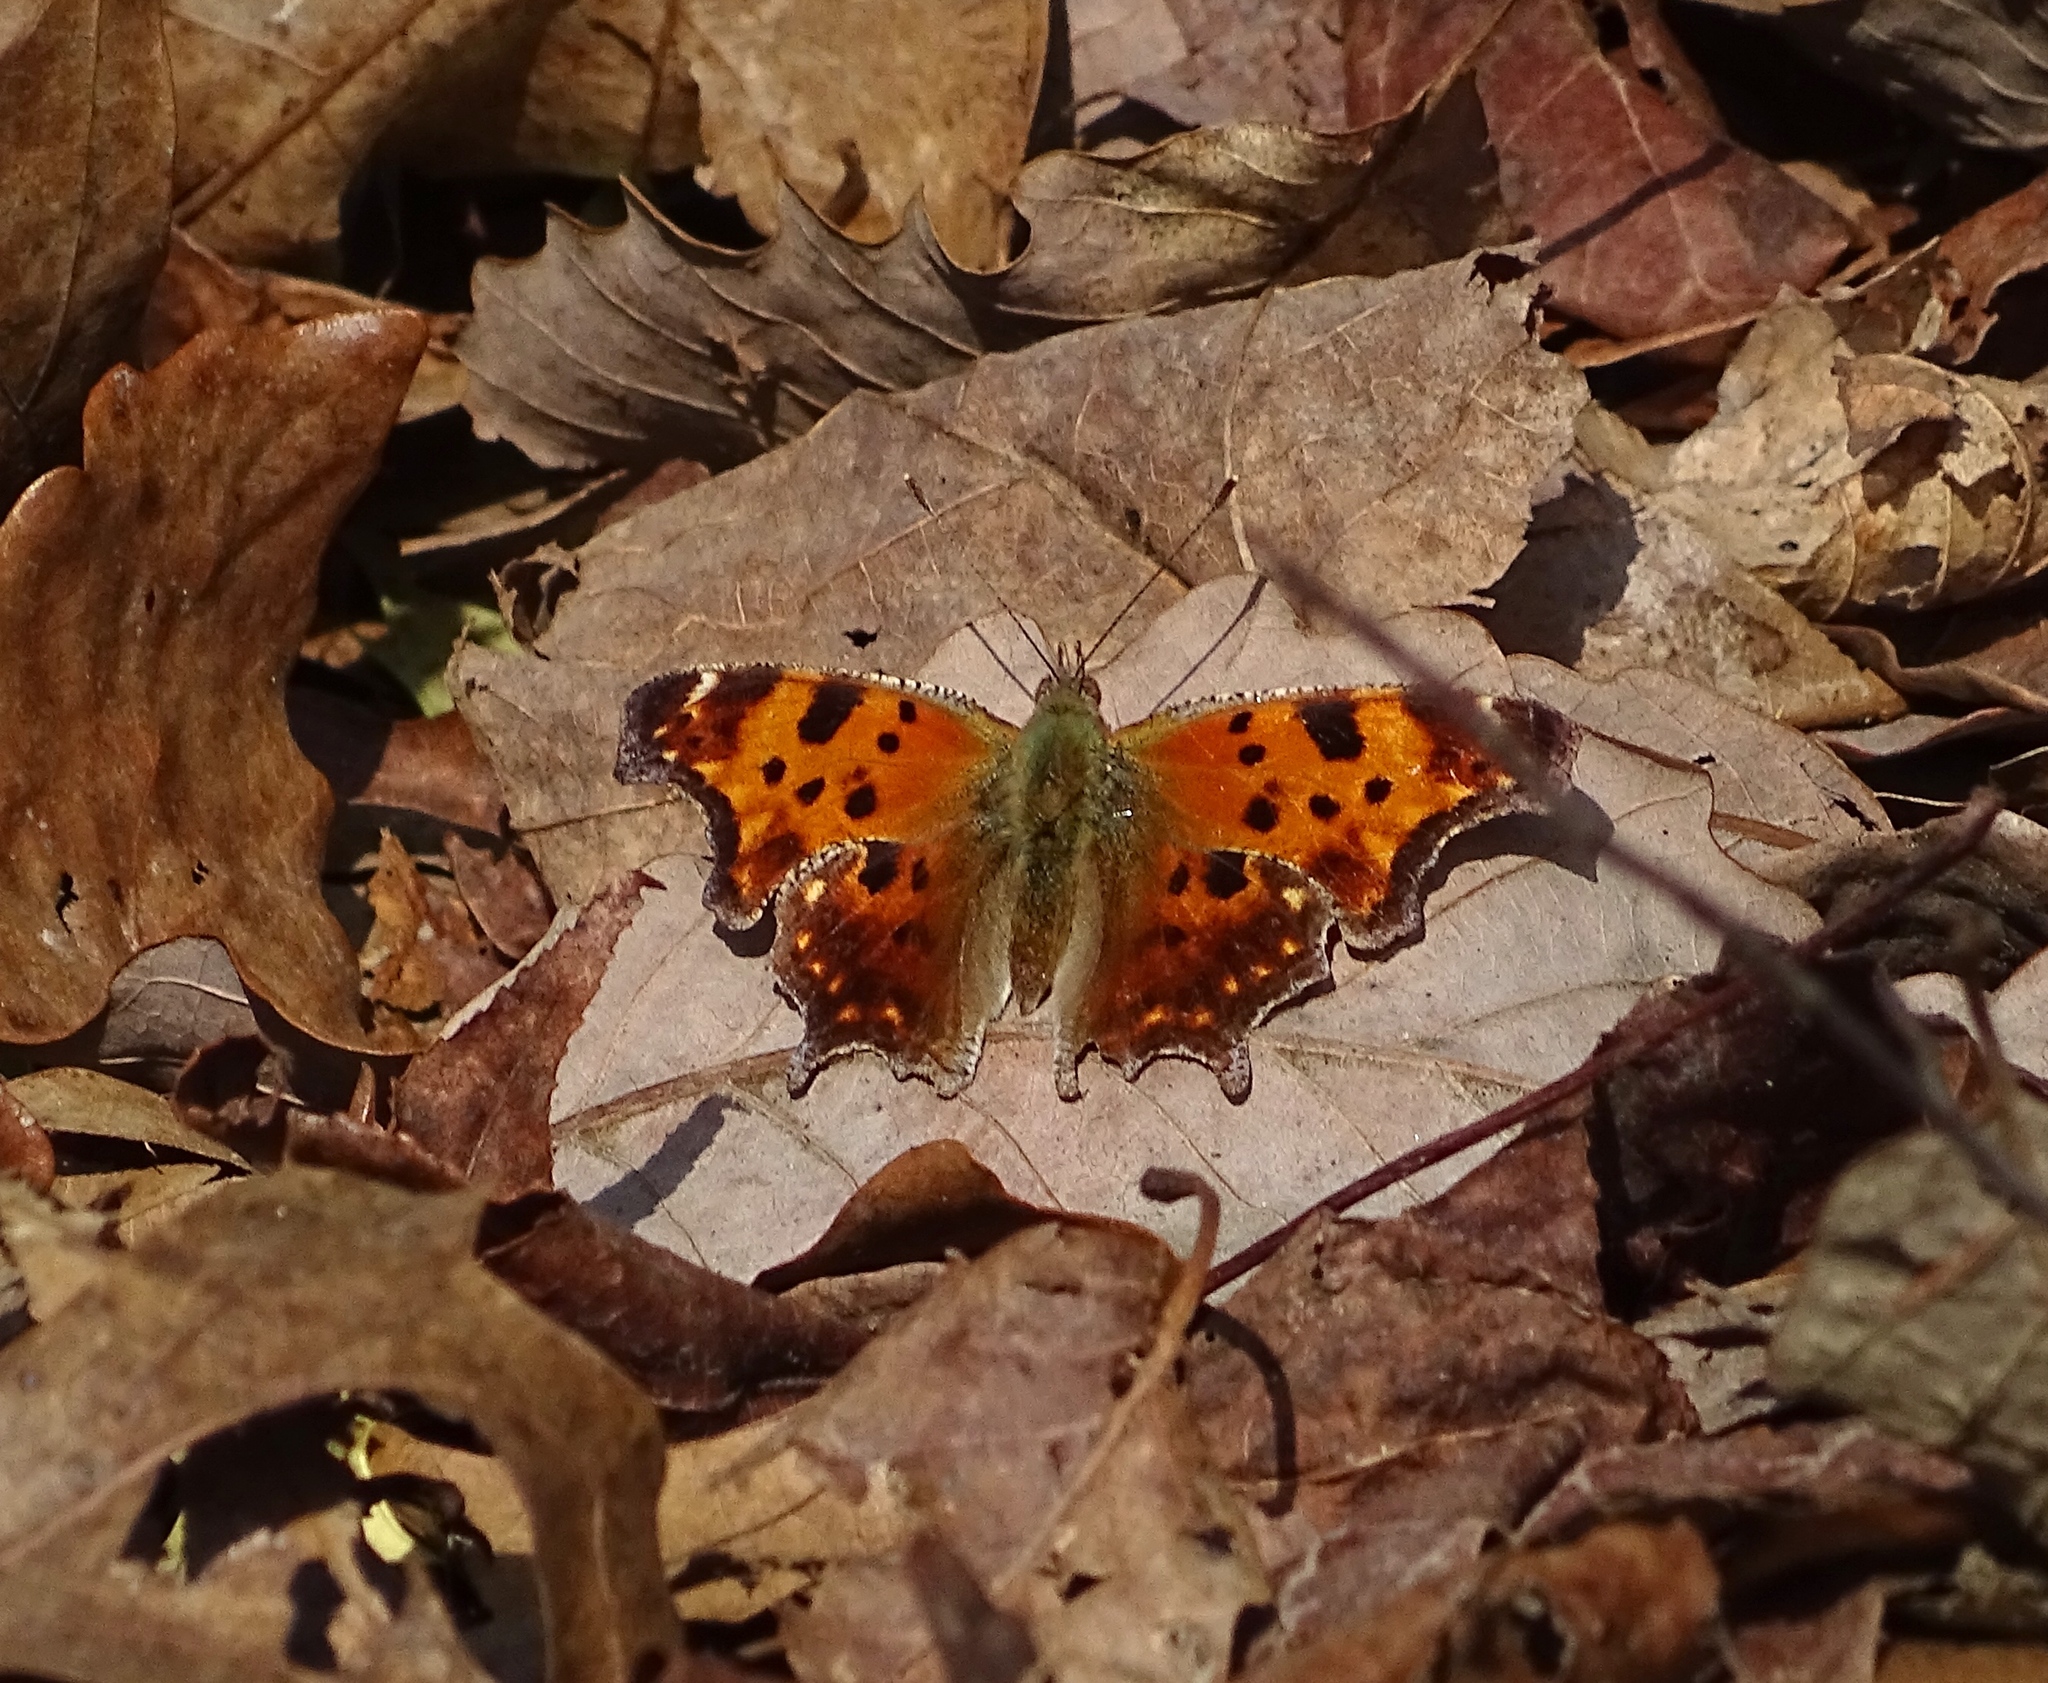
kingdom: Animalia
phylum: Arthropoda
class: Insecta
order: Lepidoptera
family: Nymphalidae
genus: Polygonia
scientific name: Polygonia comma
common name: Eastern comma
